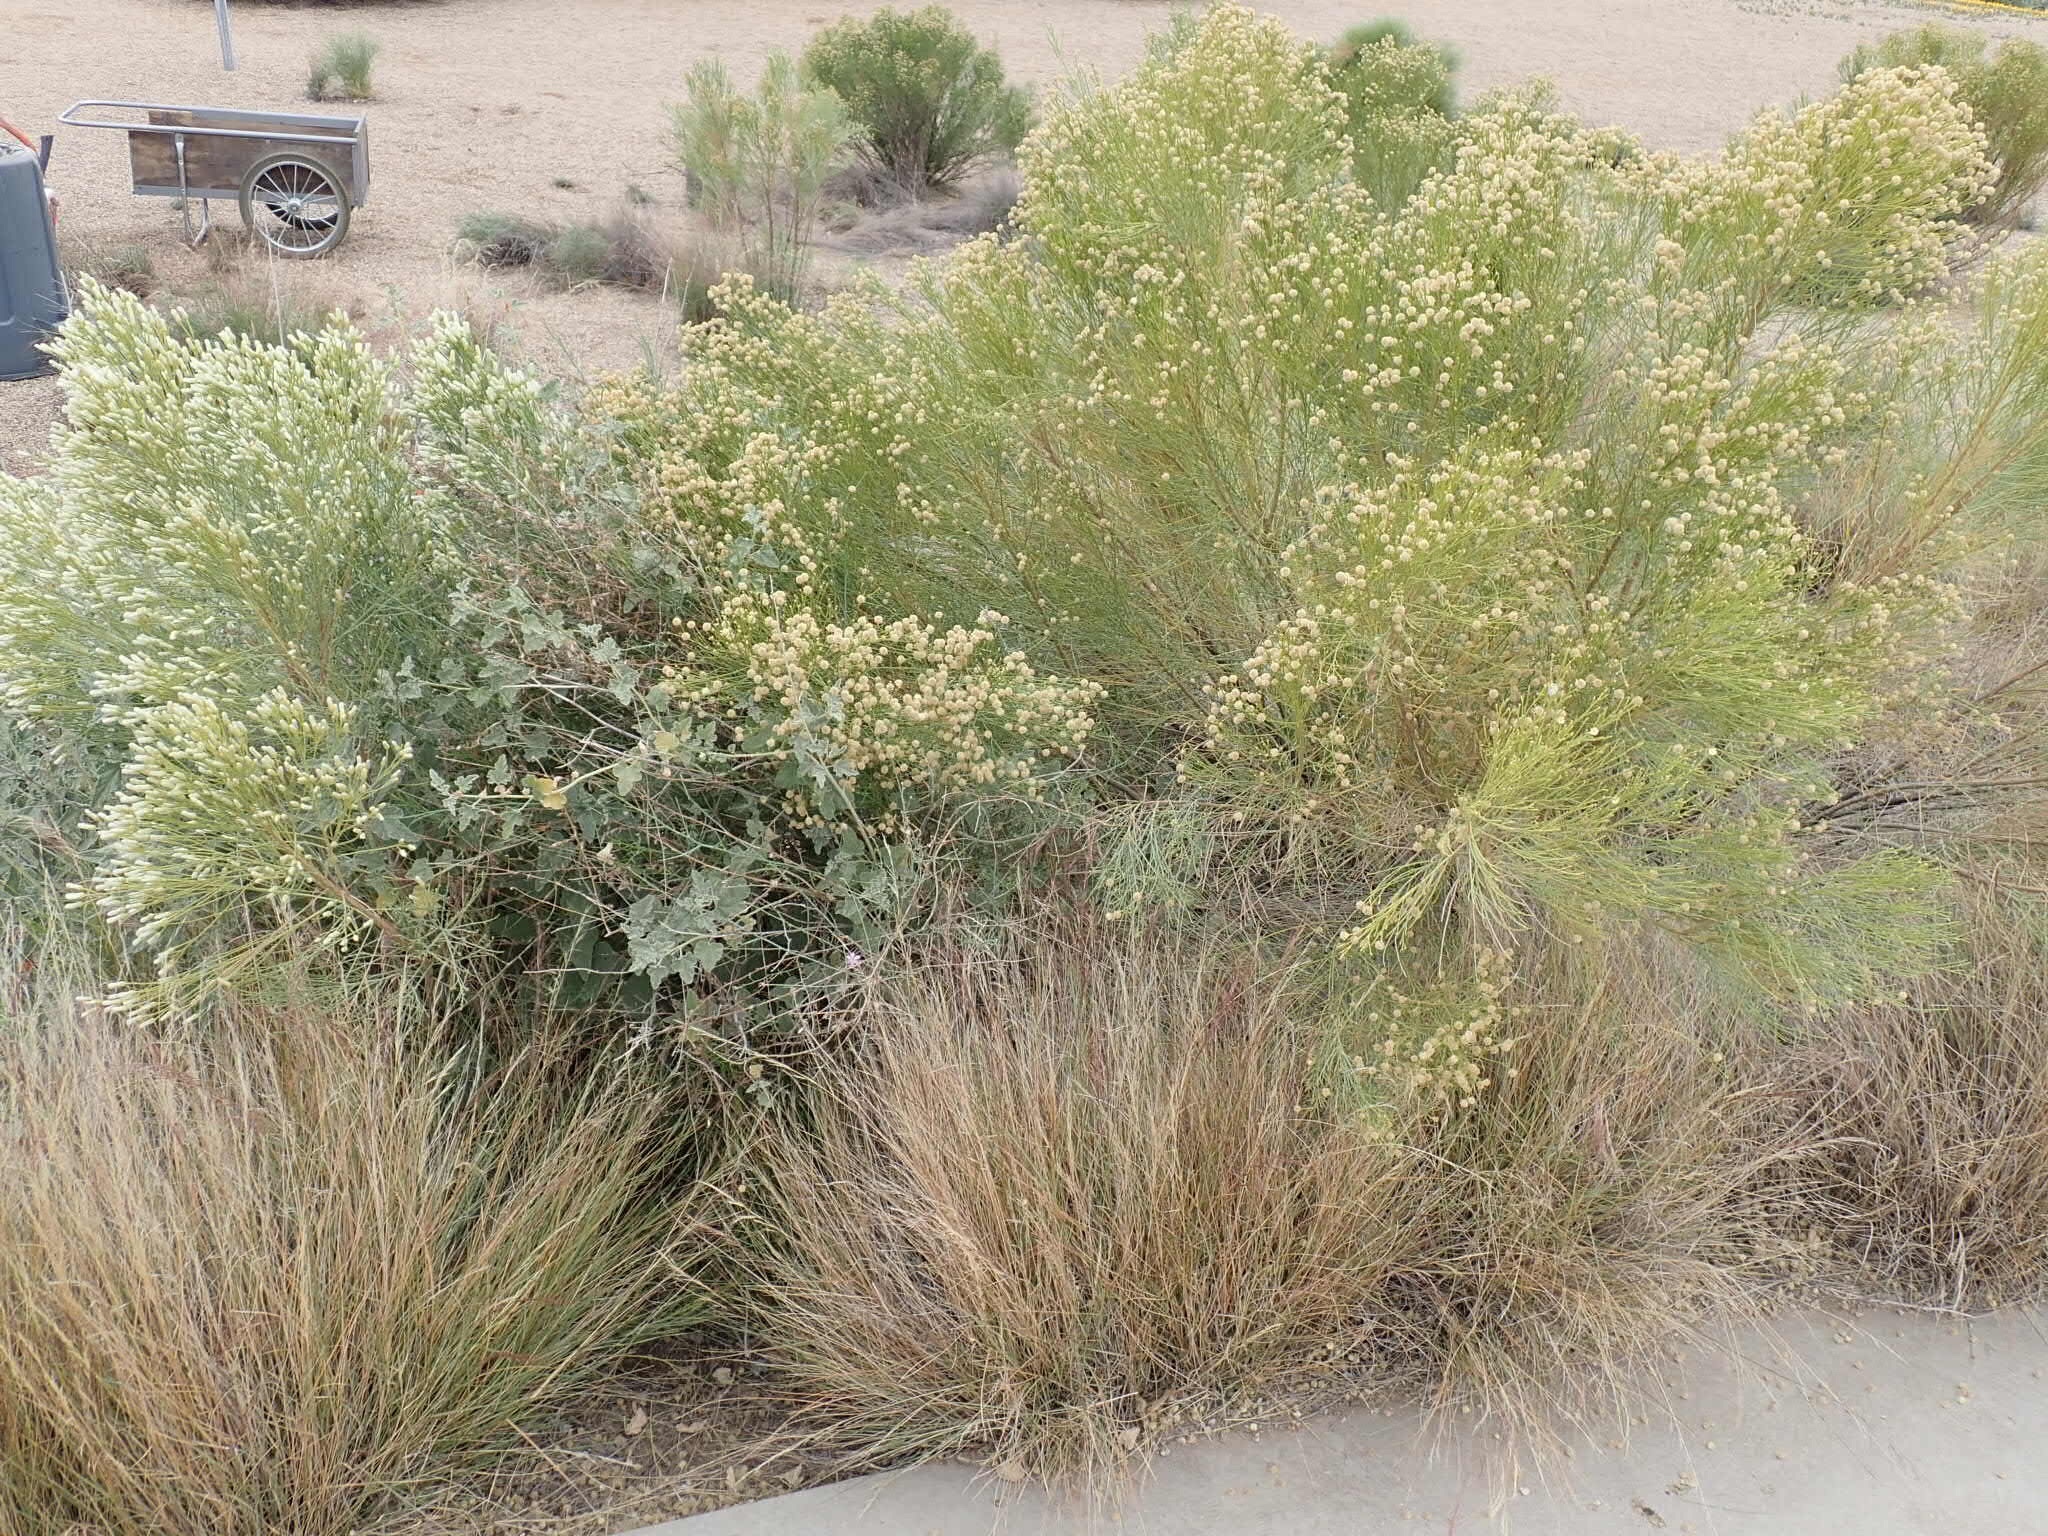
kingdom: Plantae
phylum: Tracheophyta
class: Magnoliopsida
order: Asterales
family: Asteraceae
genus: Baccharis
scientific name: Baccharis sarothroides
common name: Desert-broom
